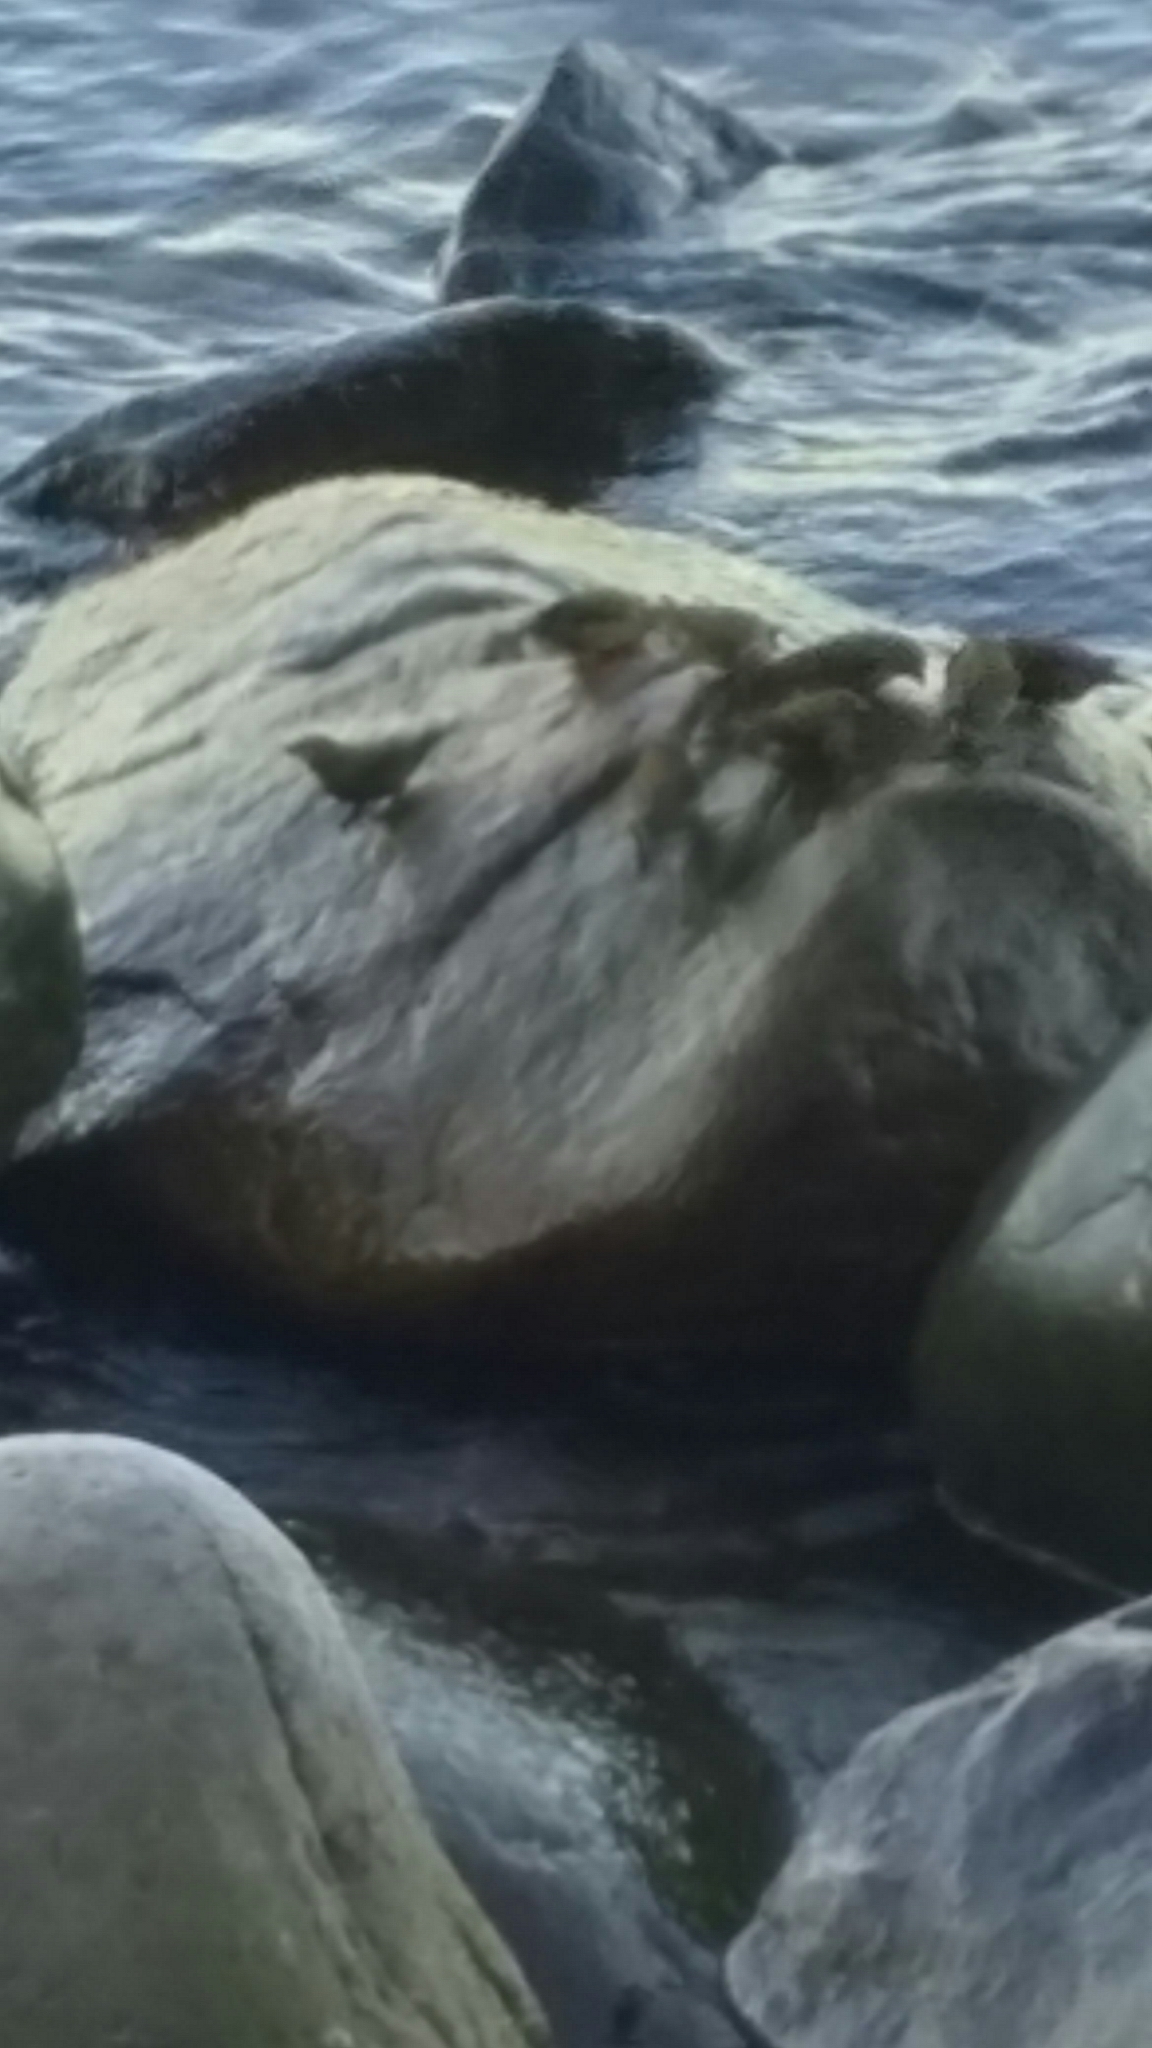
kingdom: Animalia
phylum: Chordata
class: Aves
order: Passeriformes
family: Fringillidae
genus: Loxia
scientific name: Loxia curvirostra
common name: Red crossbill
